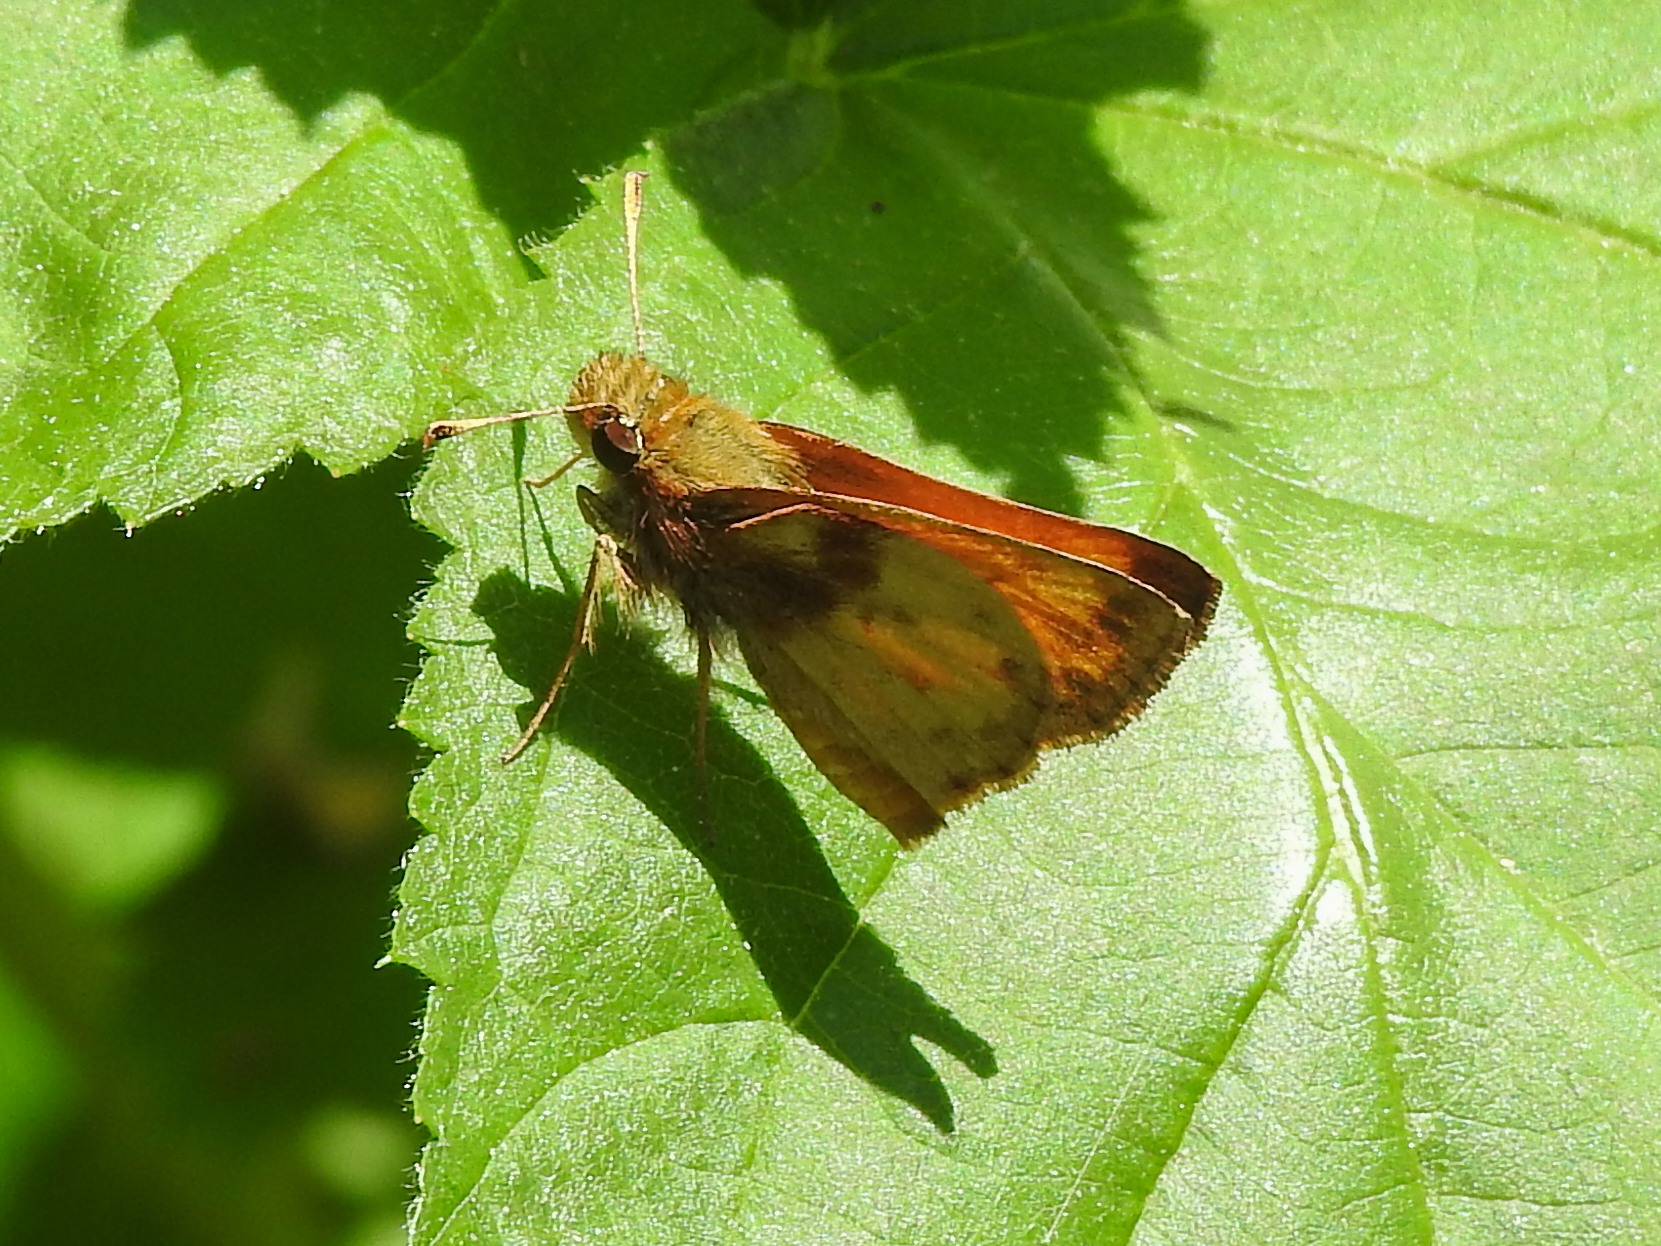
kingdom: Animalia
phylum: Arthropoda
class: Insecta
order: Lepidoptera
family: Hesperiidae
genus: Lon
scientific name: Lon zabulon
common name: Zabulon skipper
